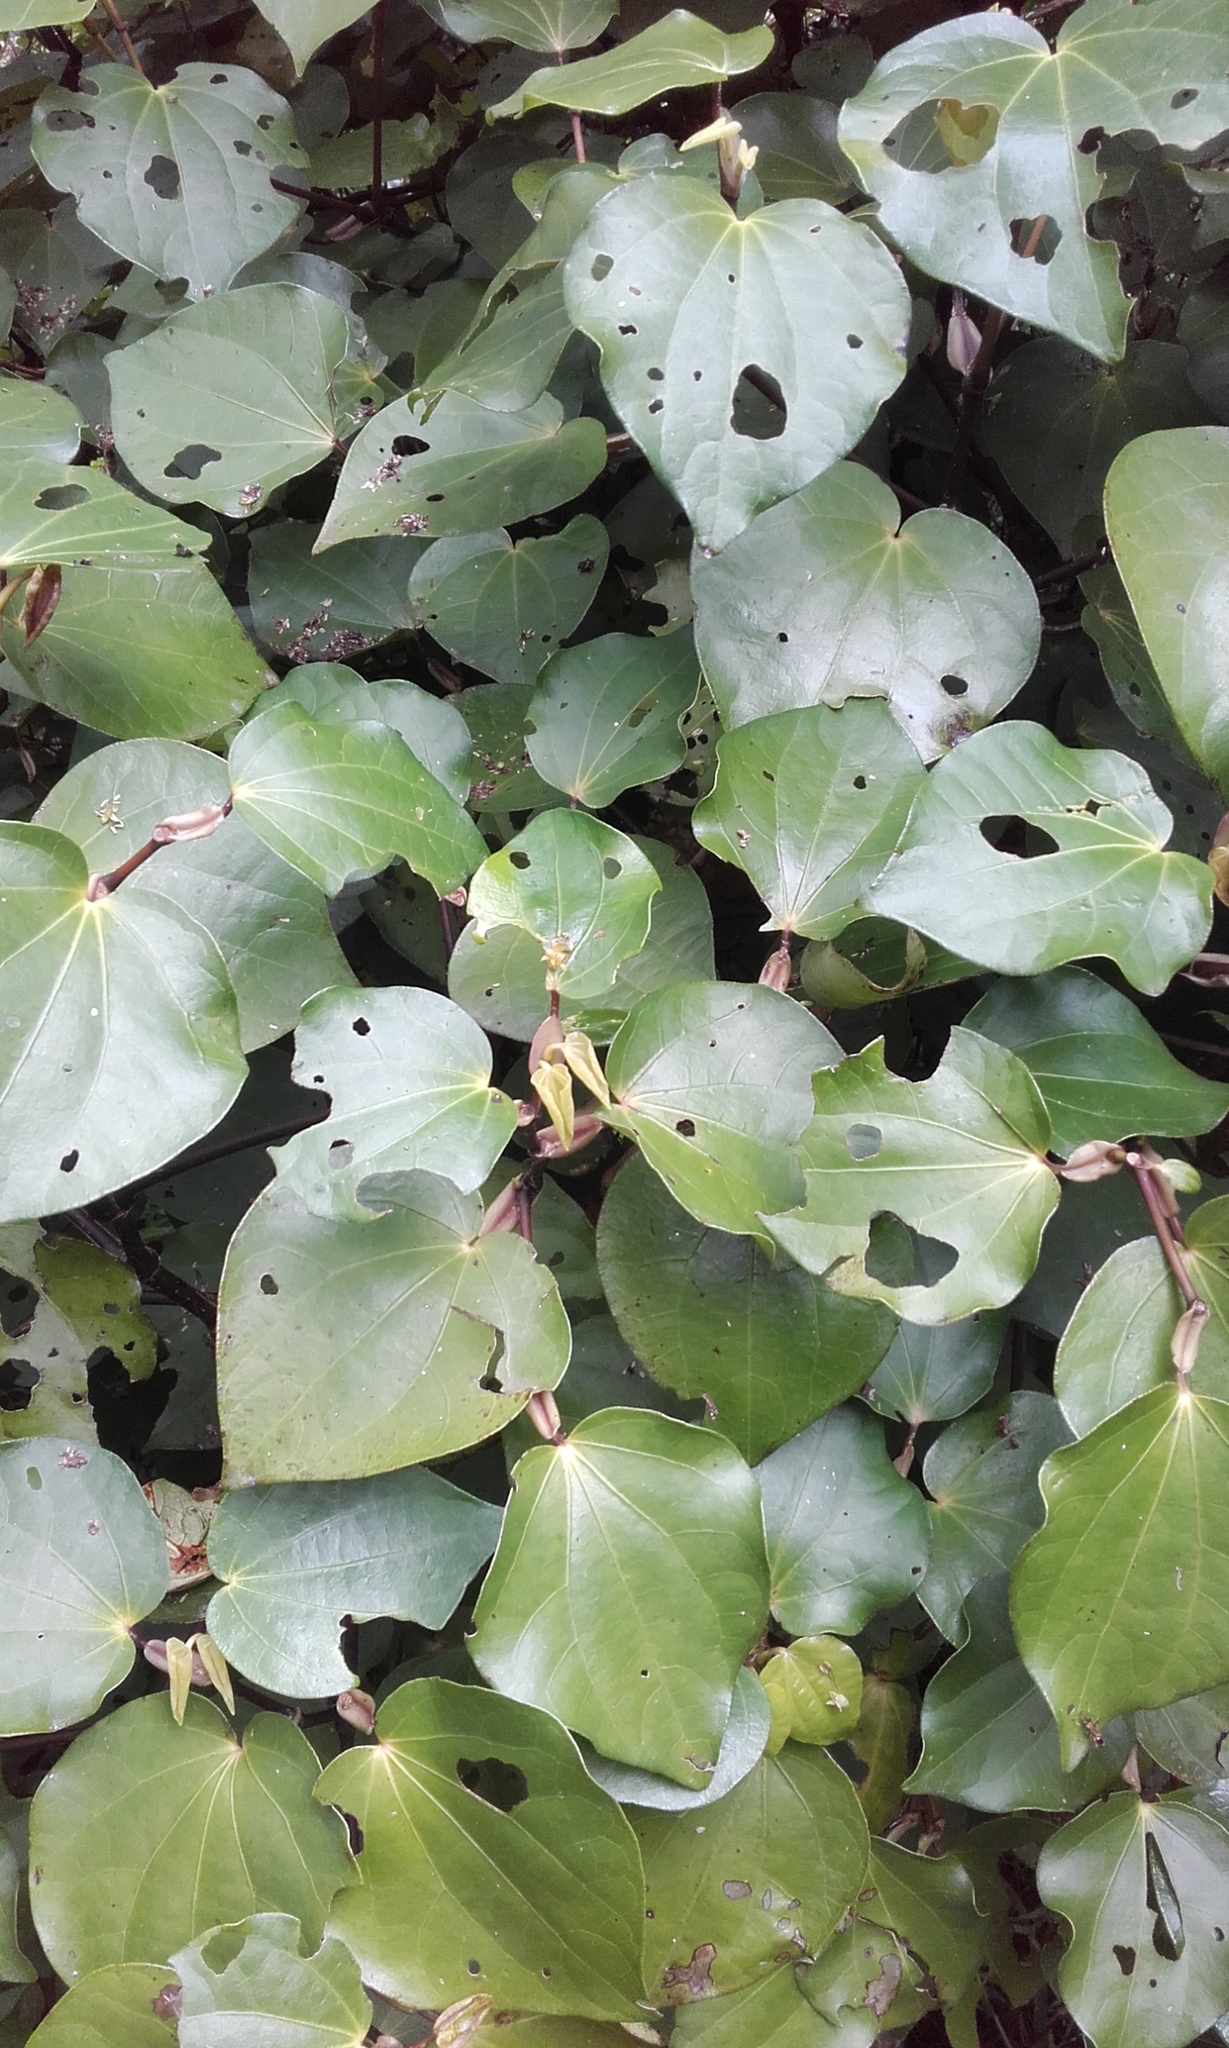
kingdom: Plantae
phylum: Tracheophyta
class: Magnoliopsida
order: Piperales
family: Piperaceae
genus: Macropiper
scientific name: Macropiper excelsum
